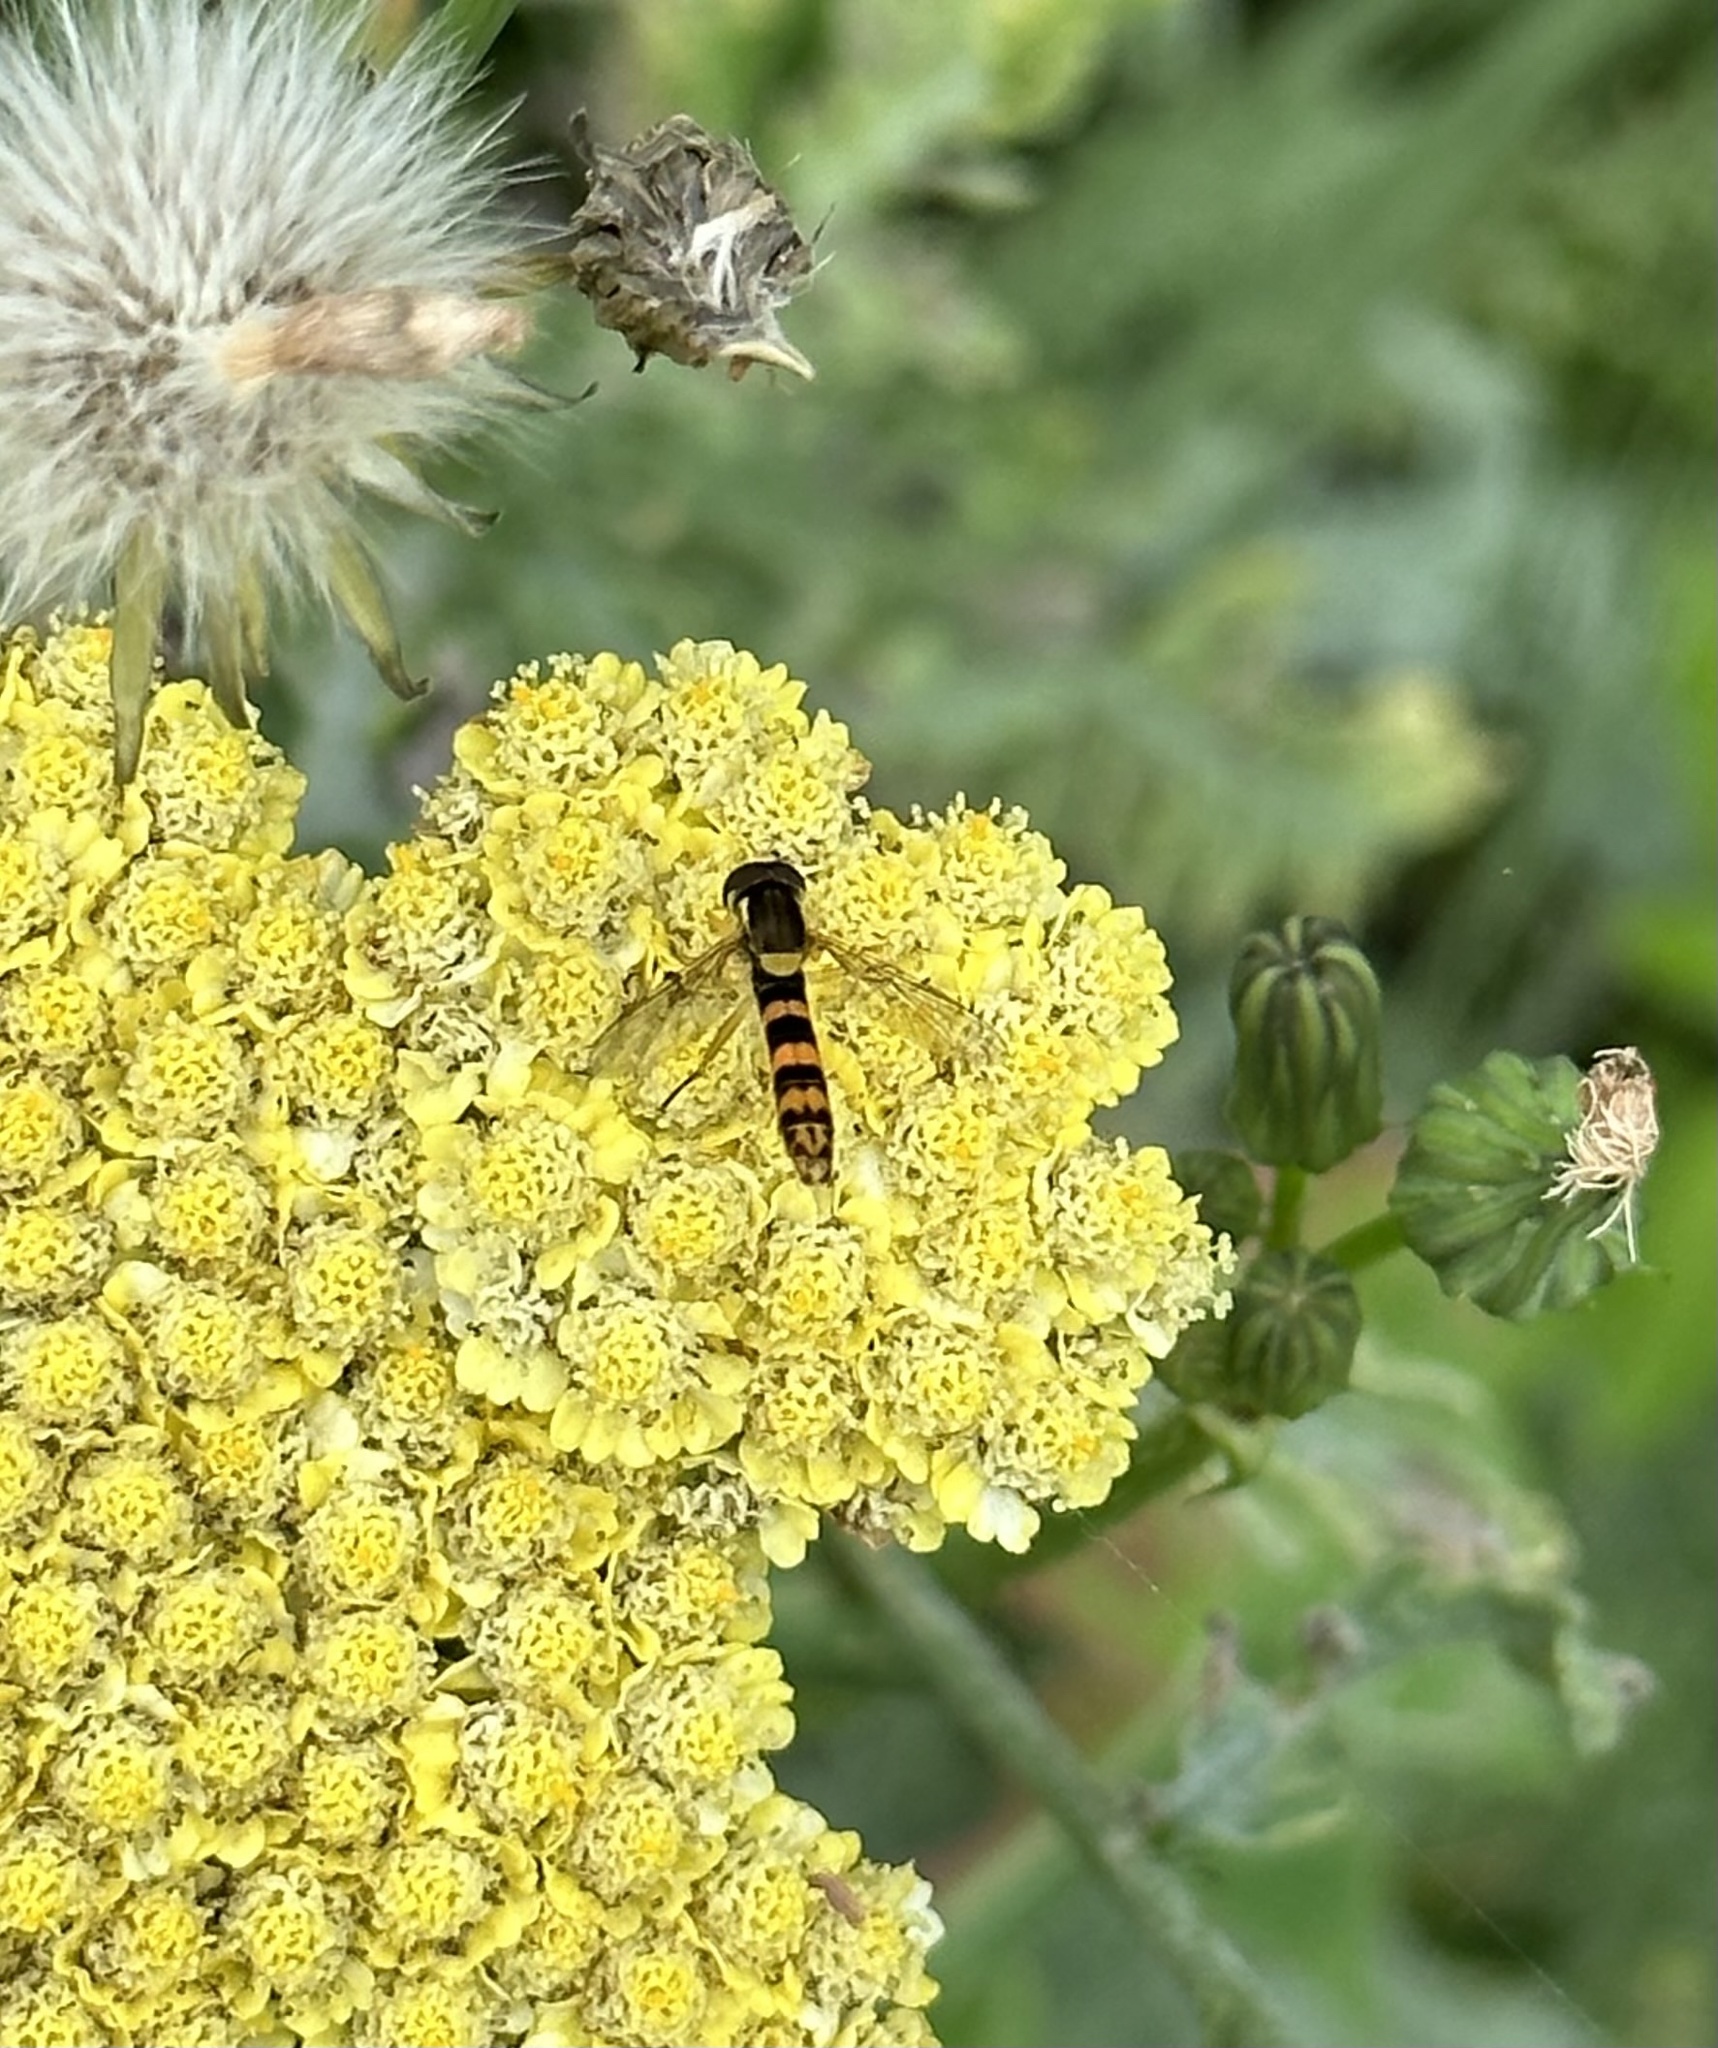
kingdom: Animalia
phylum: Arthropoda
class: Insecta
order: Diptera
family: Syrphidae
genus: Sphaerophoria
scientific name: Sphaerophoria
